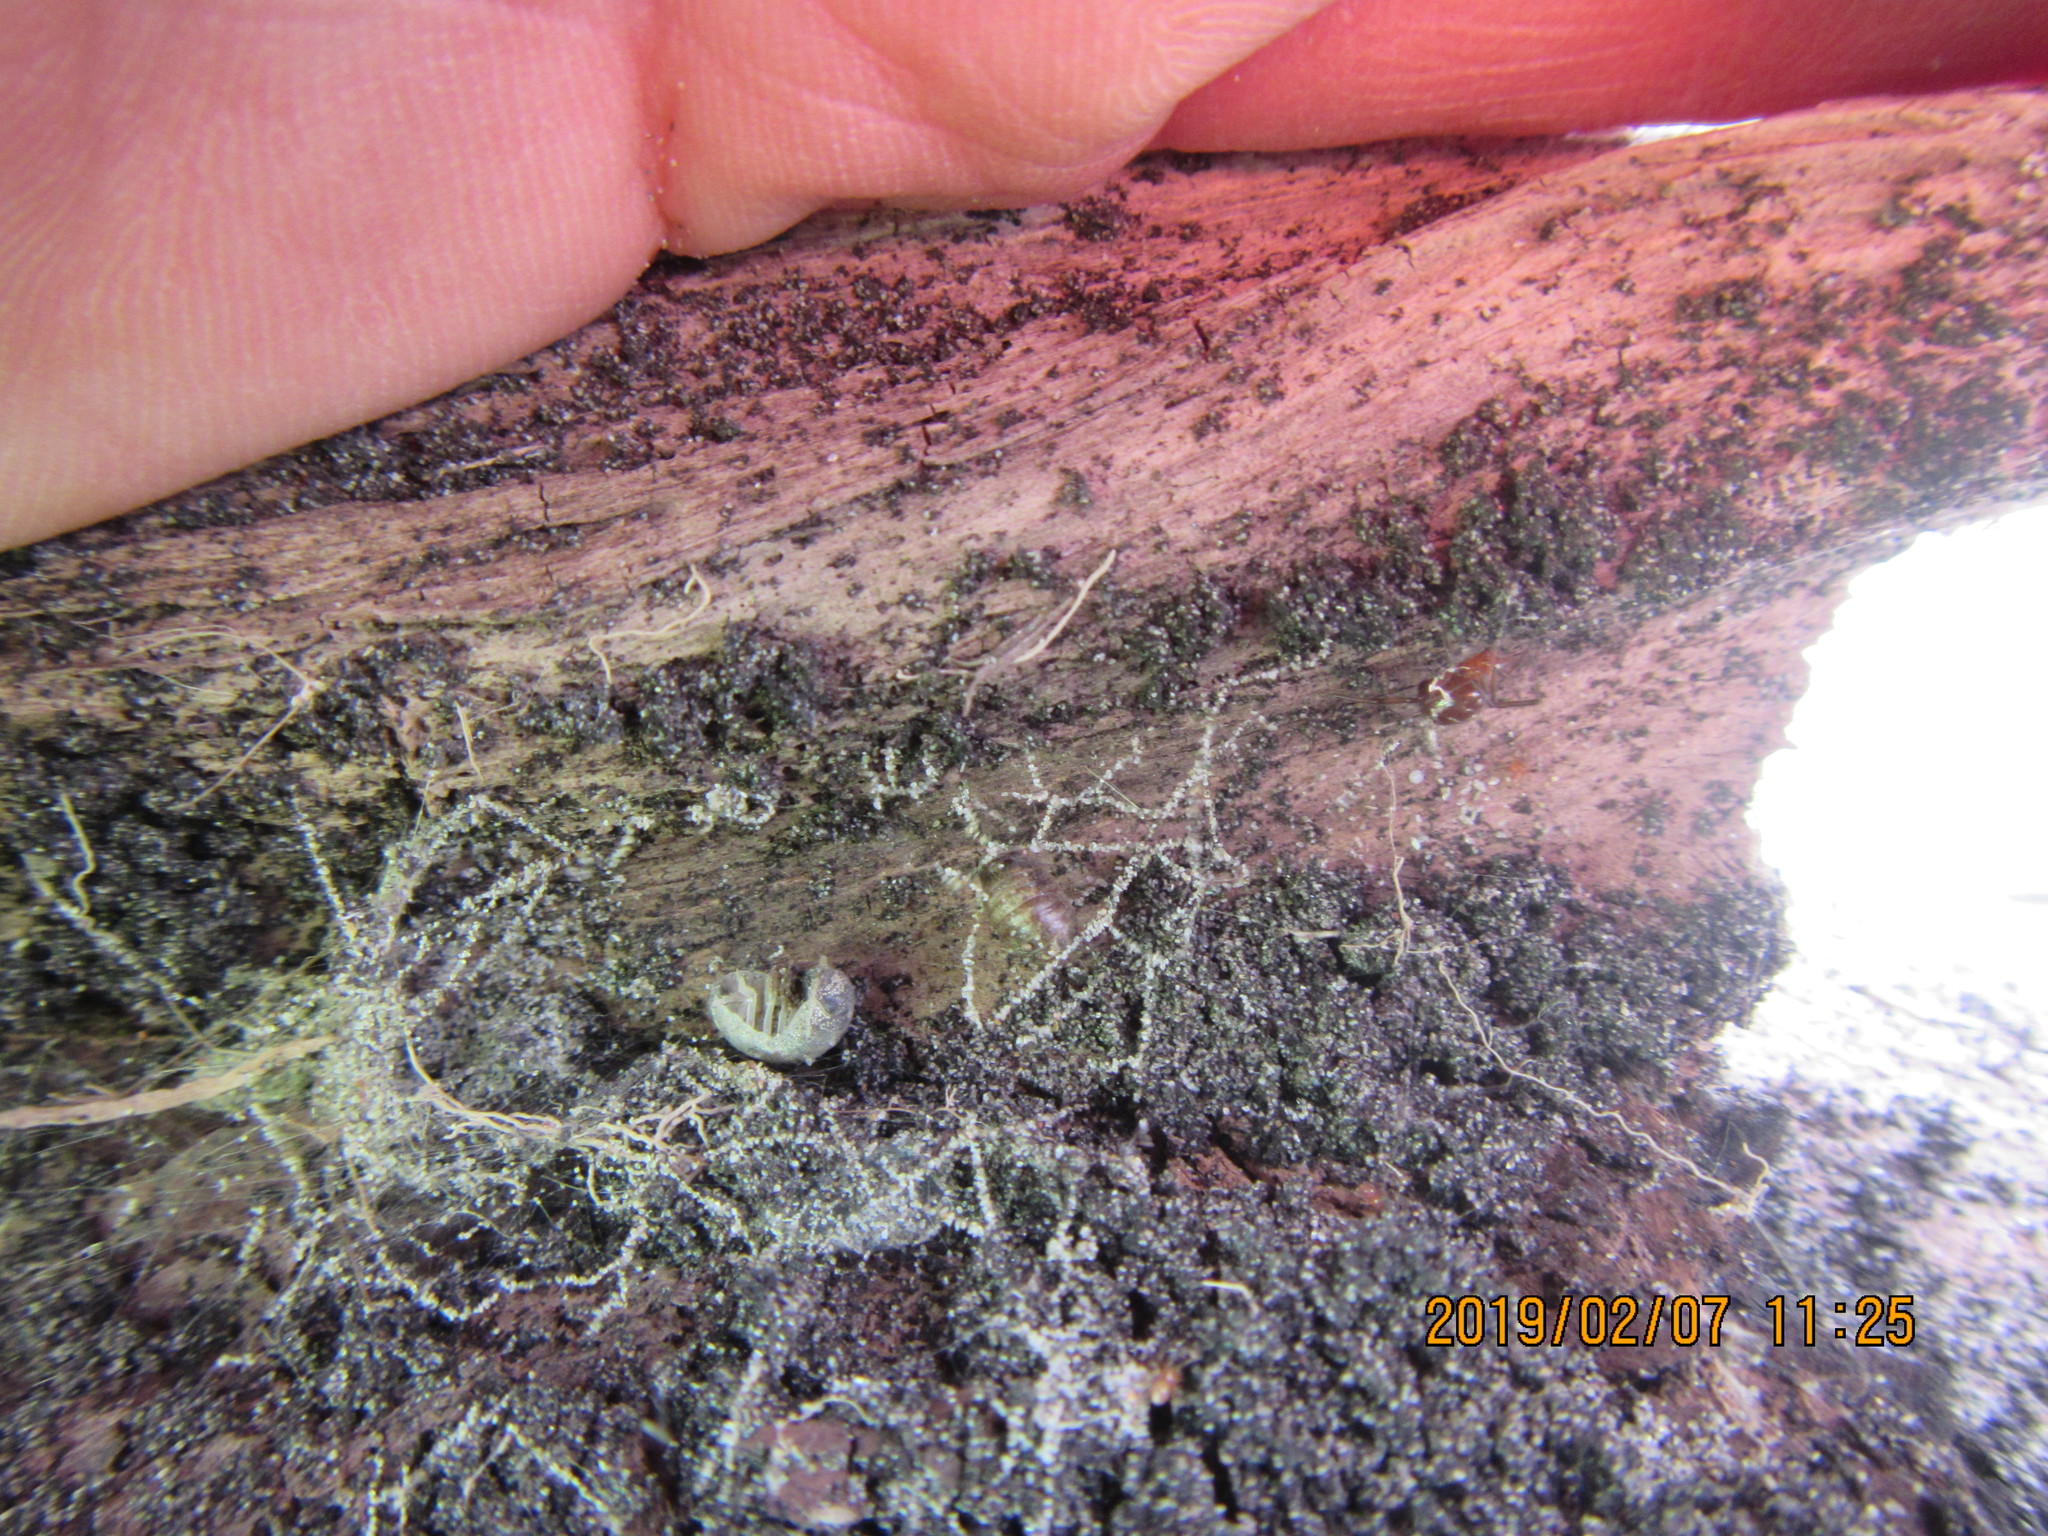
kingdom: Animalia
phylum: Arthropoda
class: Arachnida
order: Araneae
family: Theridiidae
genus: Steatoda
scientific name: Steatoda capensis
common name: Cobweb weaver
